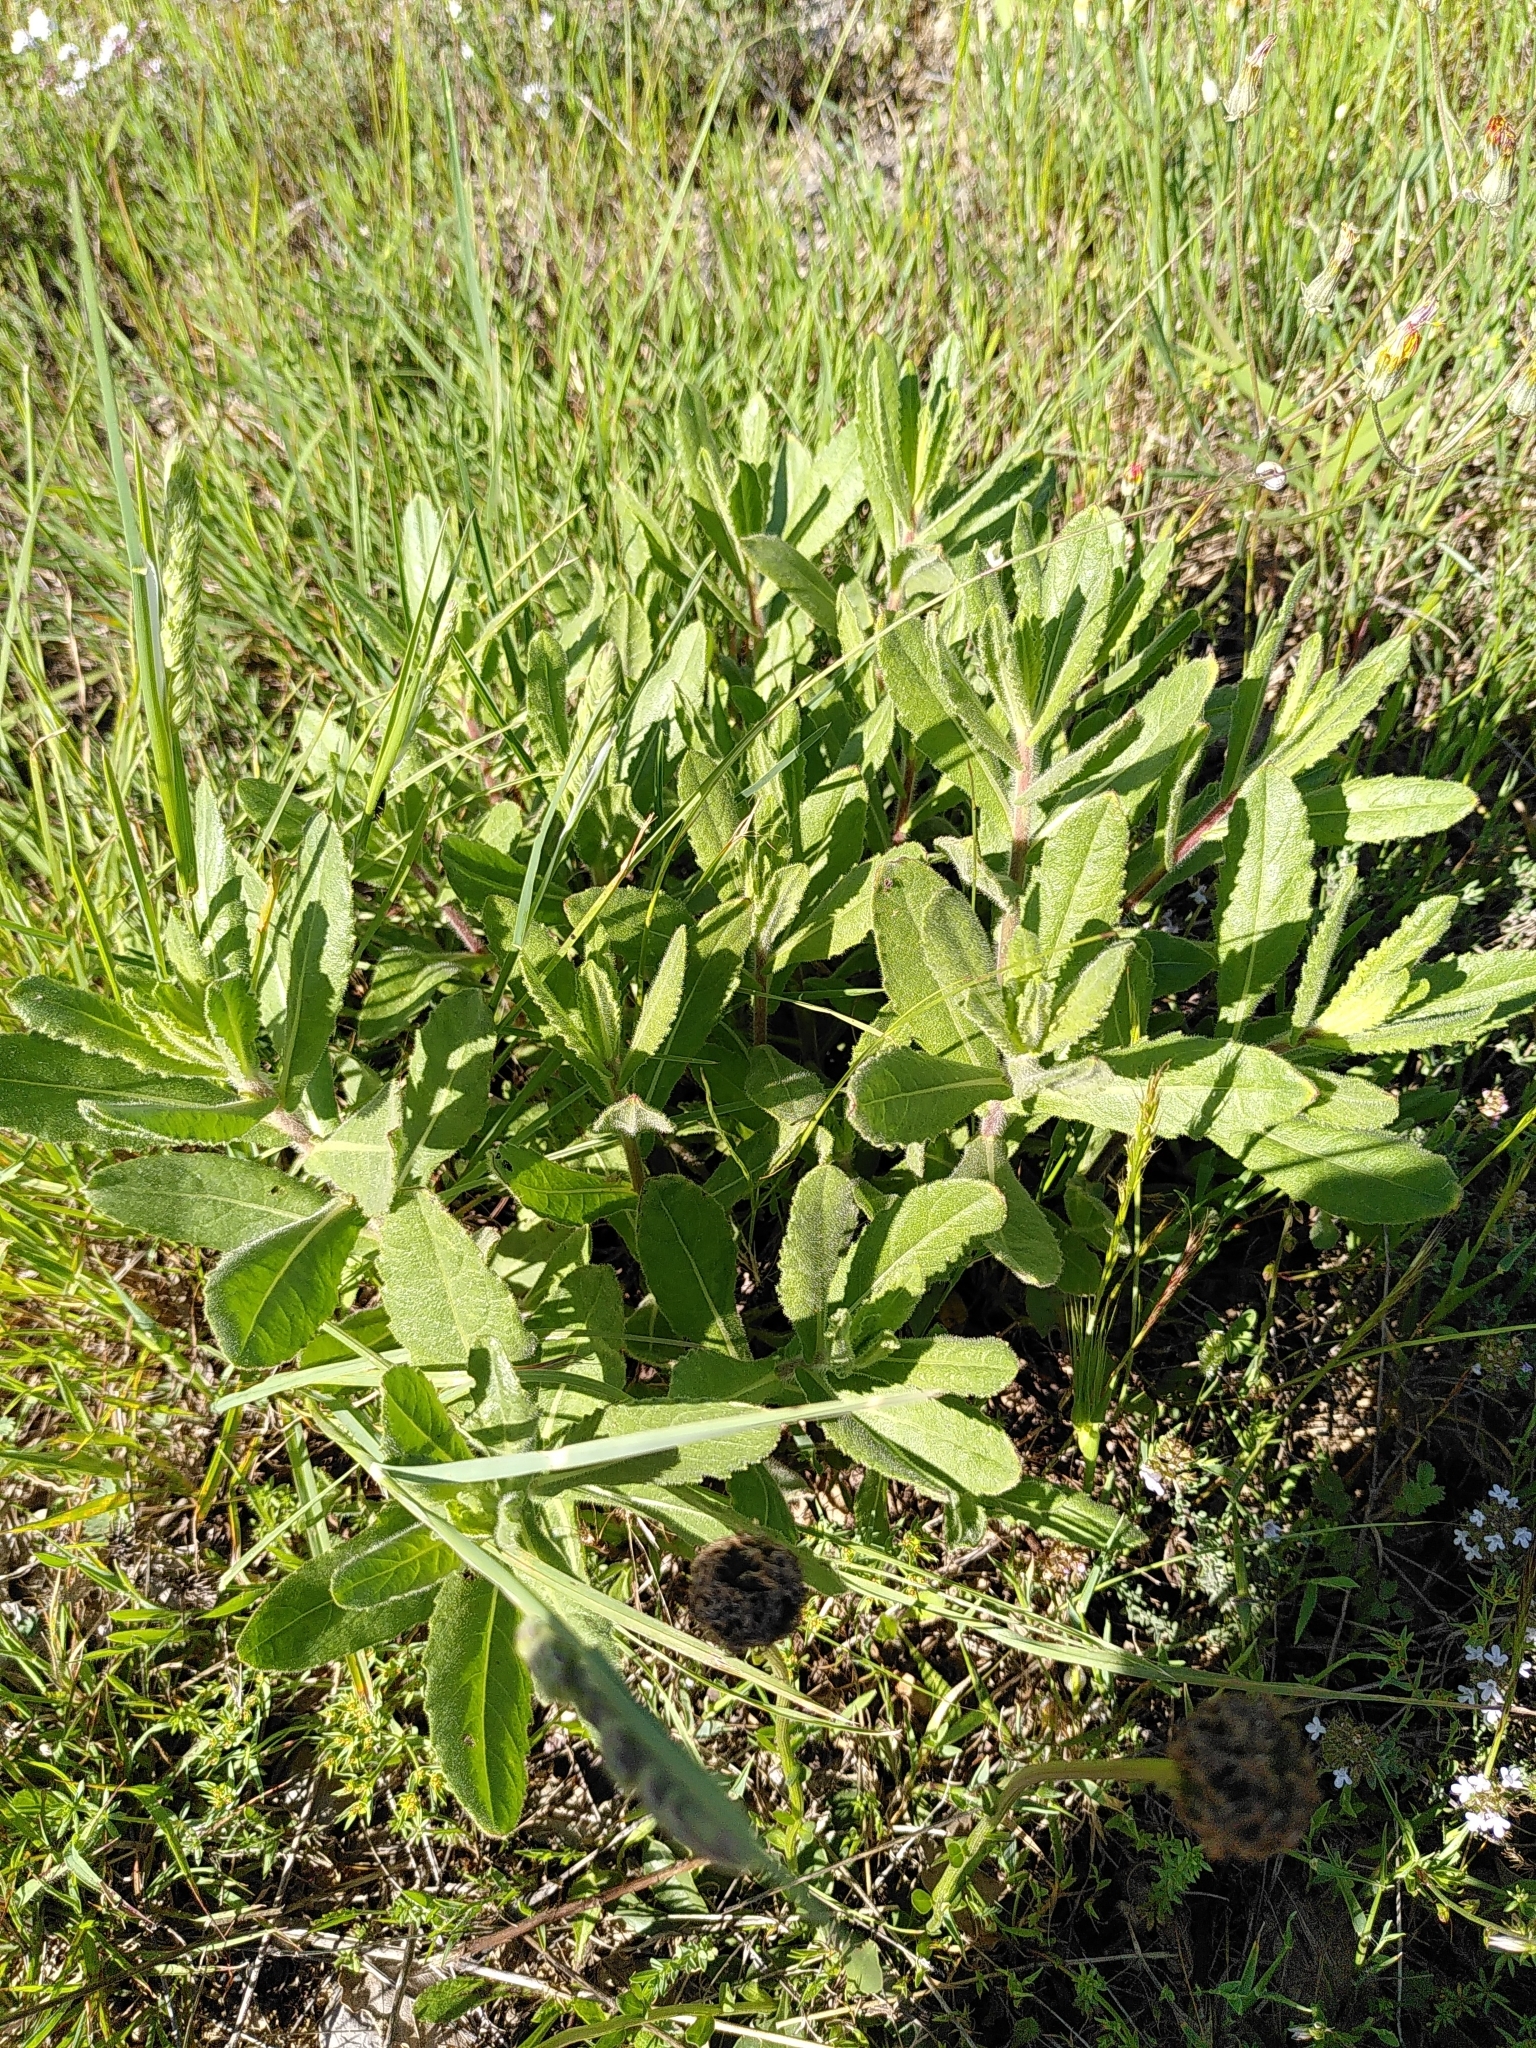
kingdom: Plantae
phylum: Tracheophyta
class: Magnoliopsida
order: Asterales
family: Asteraceae
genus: Dittrichia
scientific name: Dittrichia viscosa
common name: Woody fleabane
